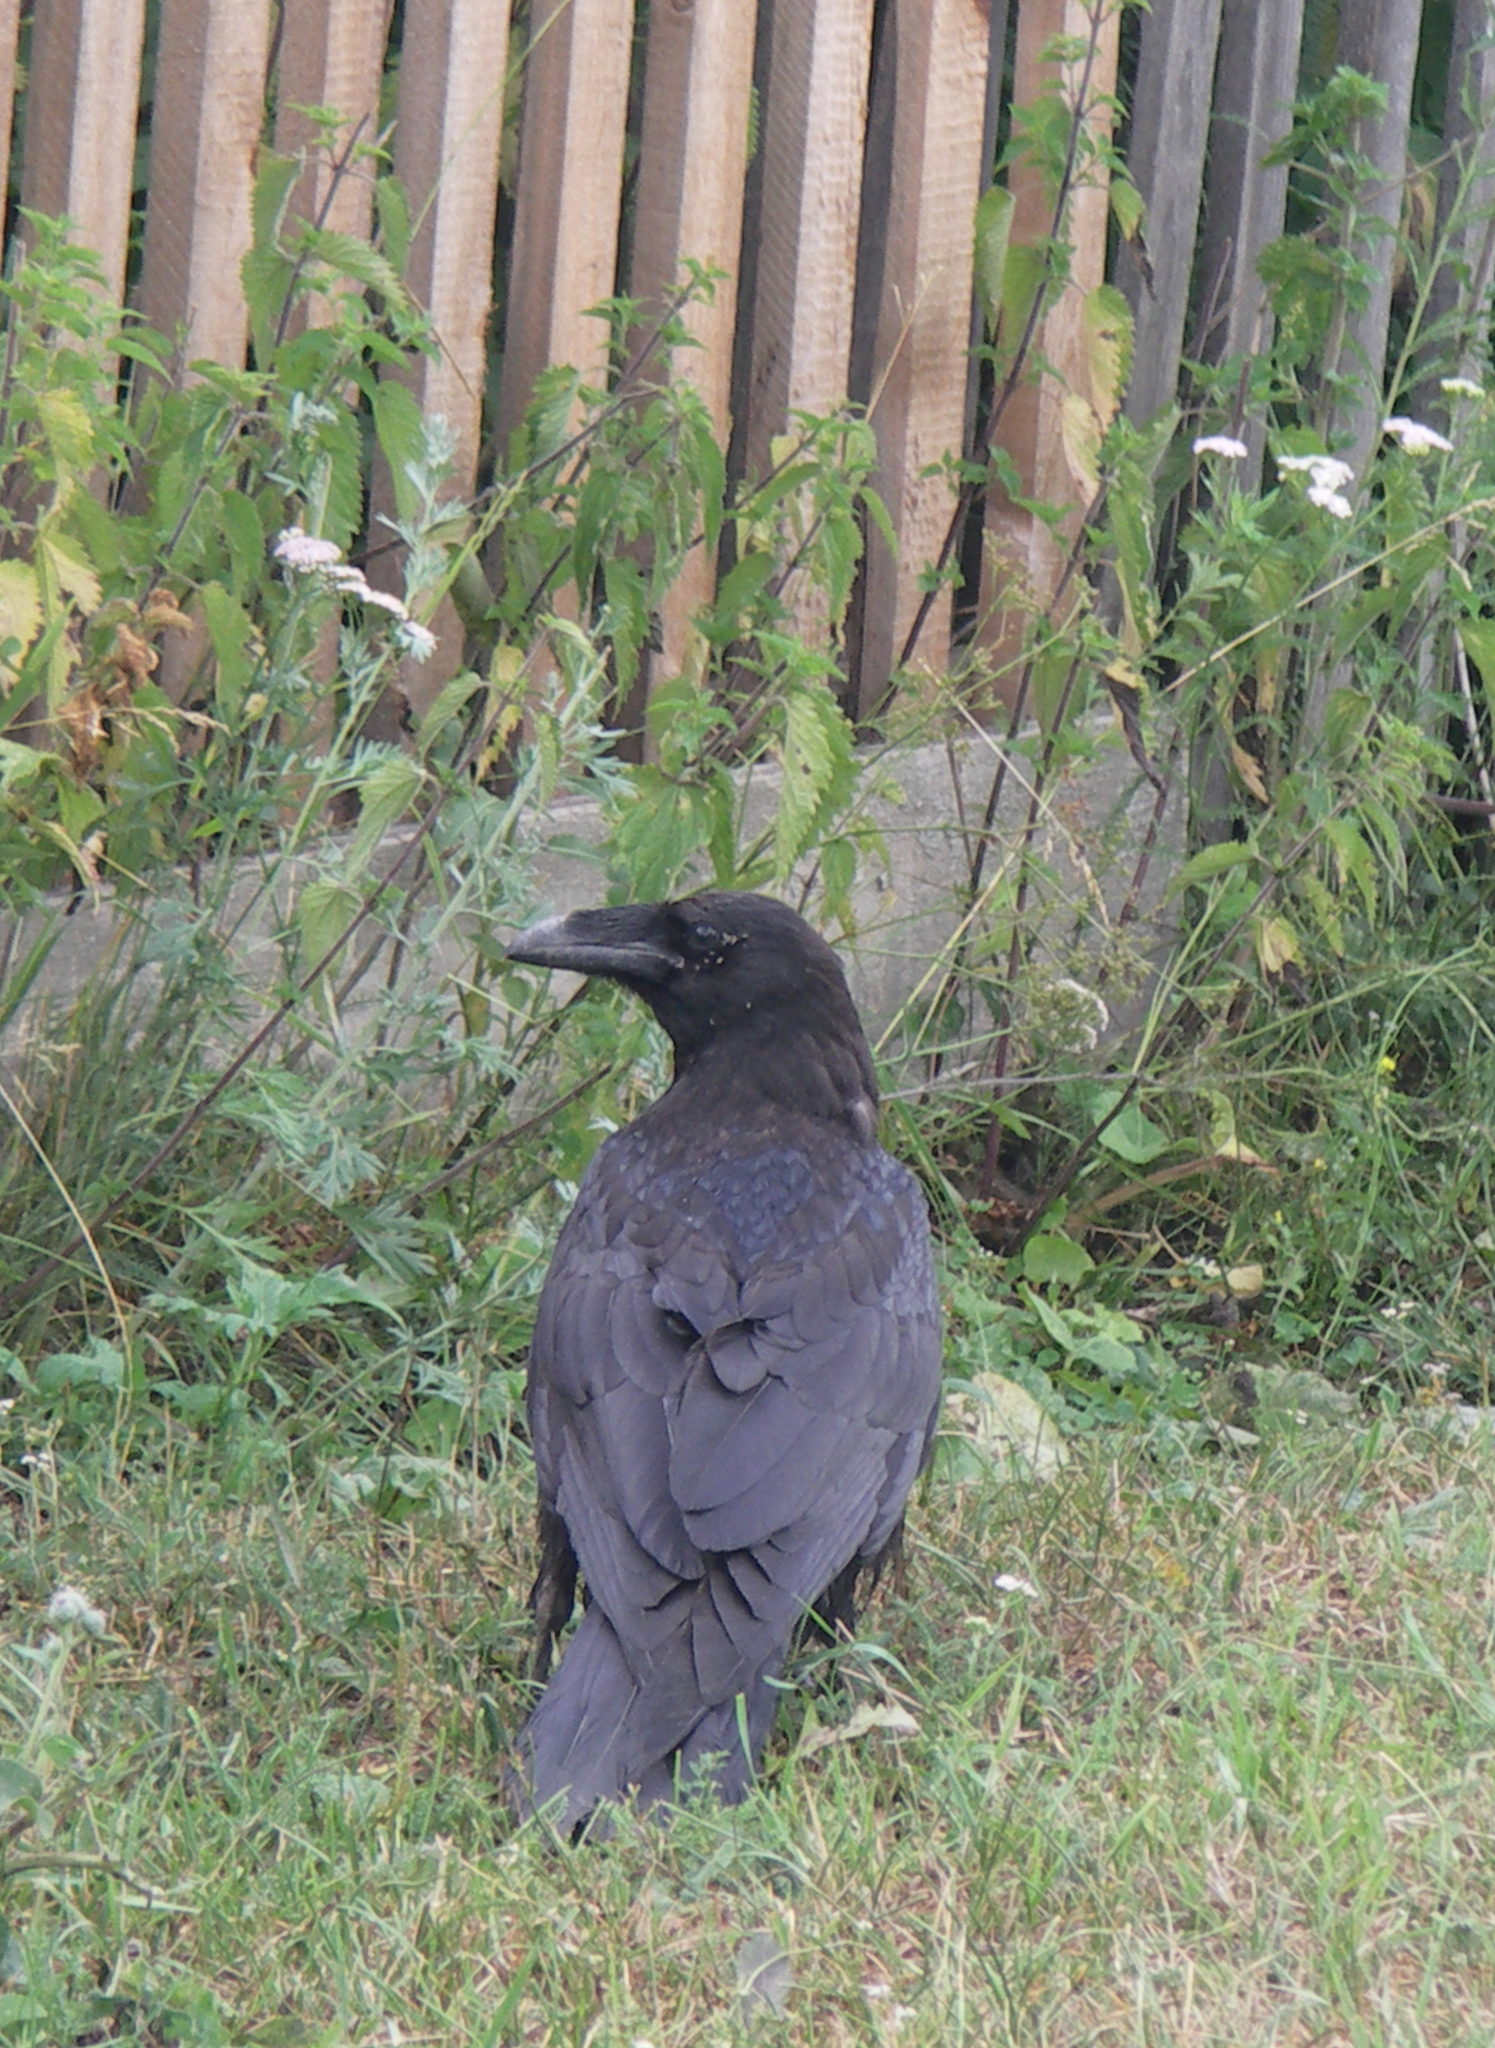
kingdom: Animalia
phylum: Chordata
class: Aves
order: Passeriformes
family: Corvidae
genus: Corvus
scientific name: Corvus corax
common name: Common raven
